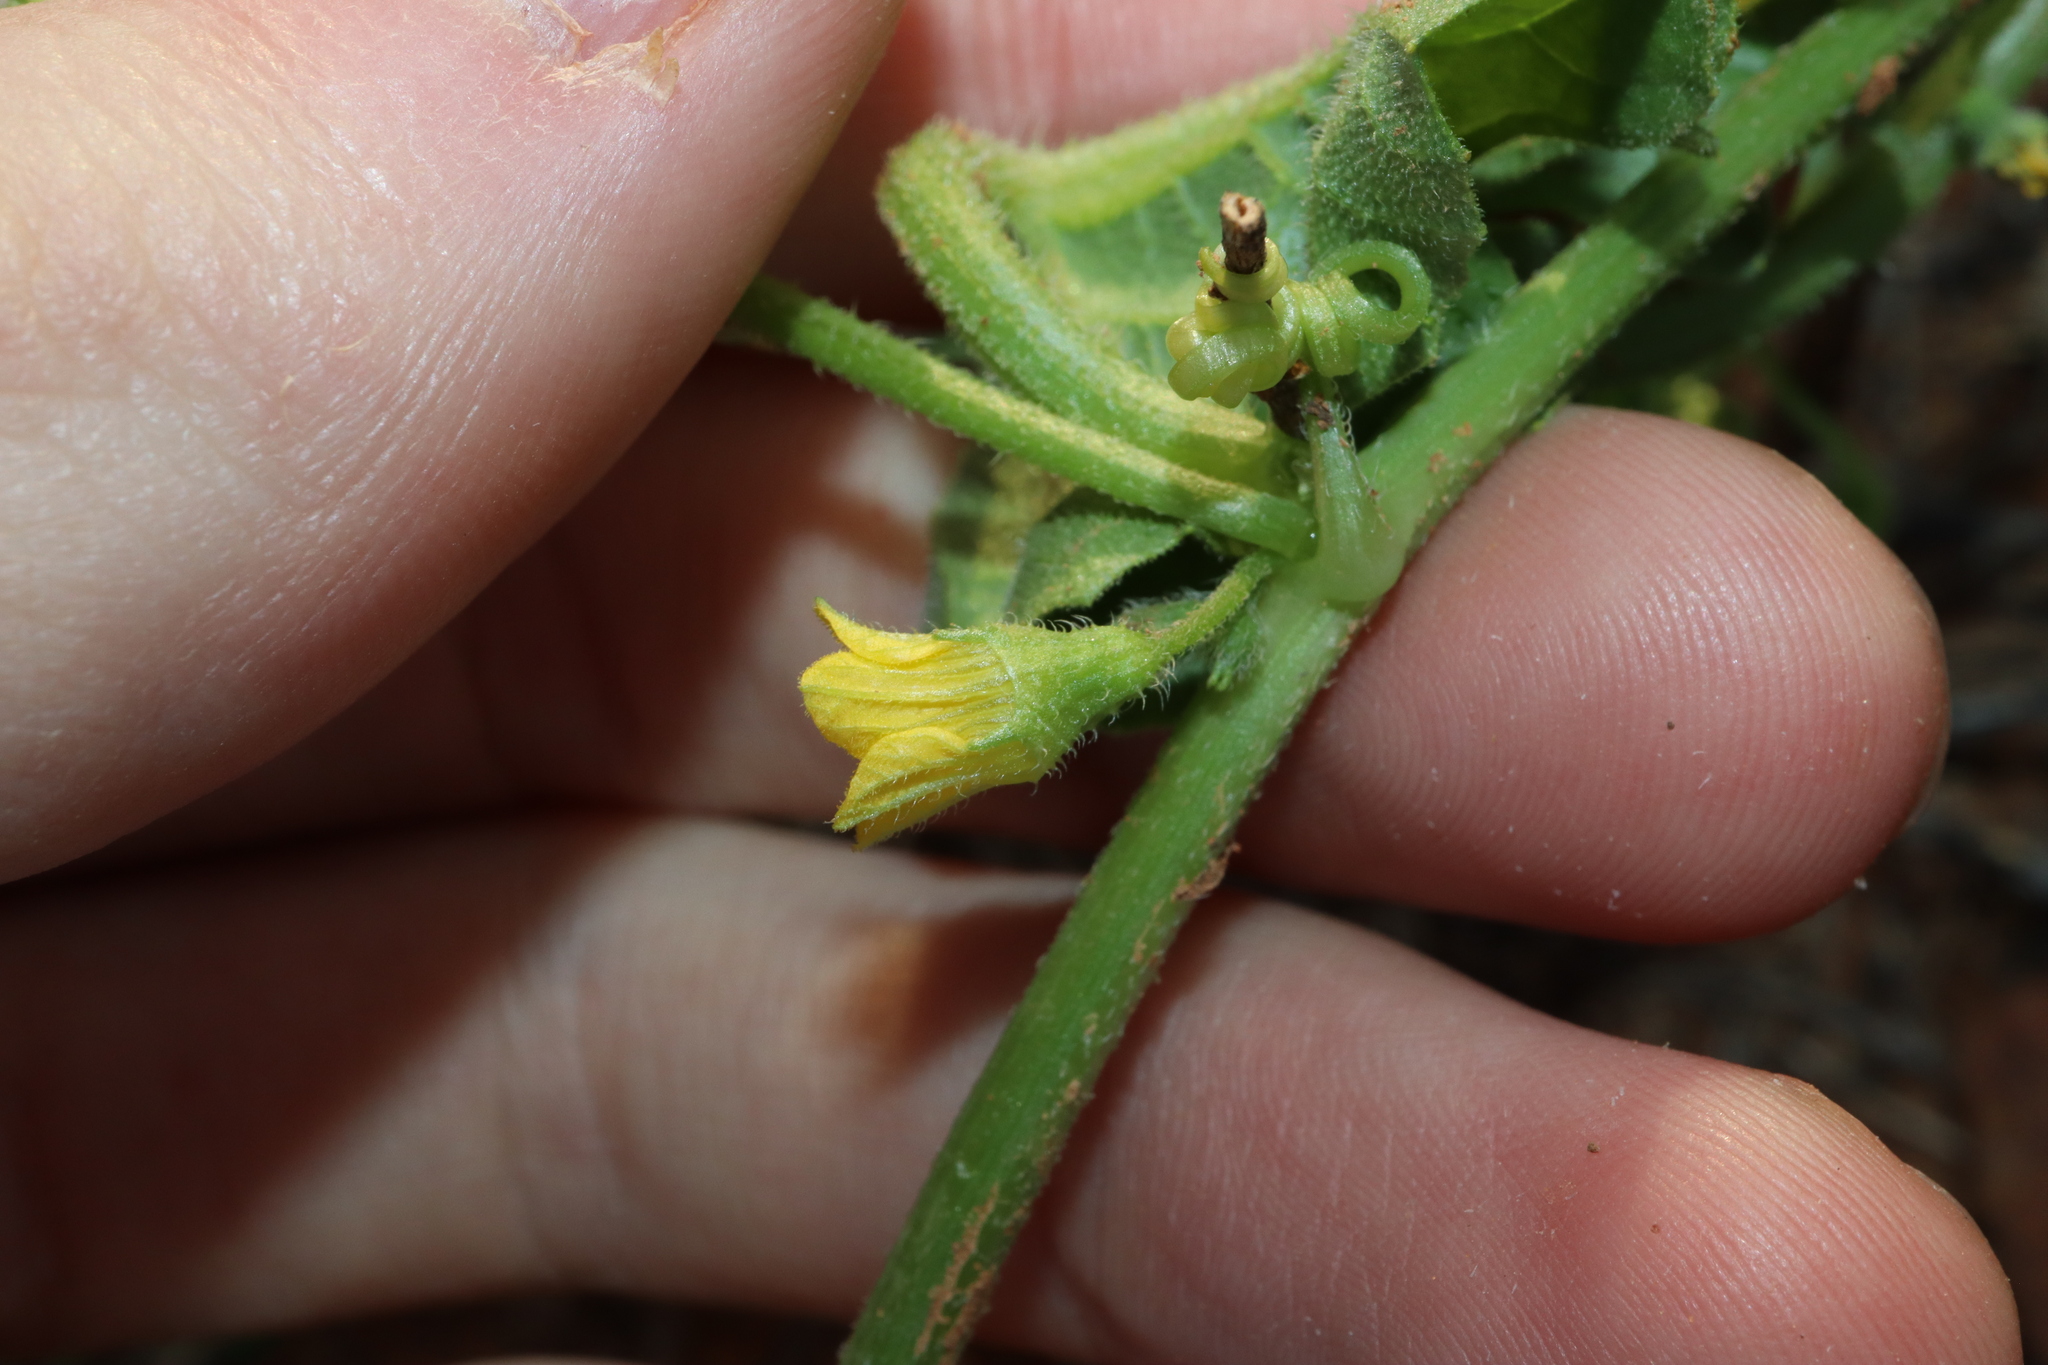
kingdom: Plantae
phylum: Tracheophyta
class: Magnoliopsida
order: Cucurbitales
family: Cucurbitaceae
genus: Cucumis
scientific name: Cucumis myriocarpus
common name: Gooseberry cucumber
